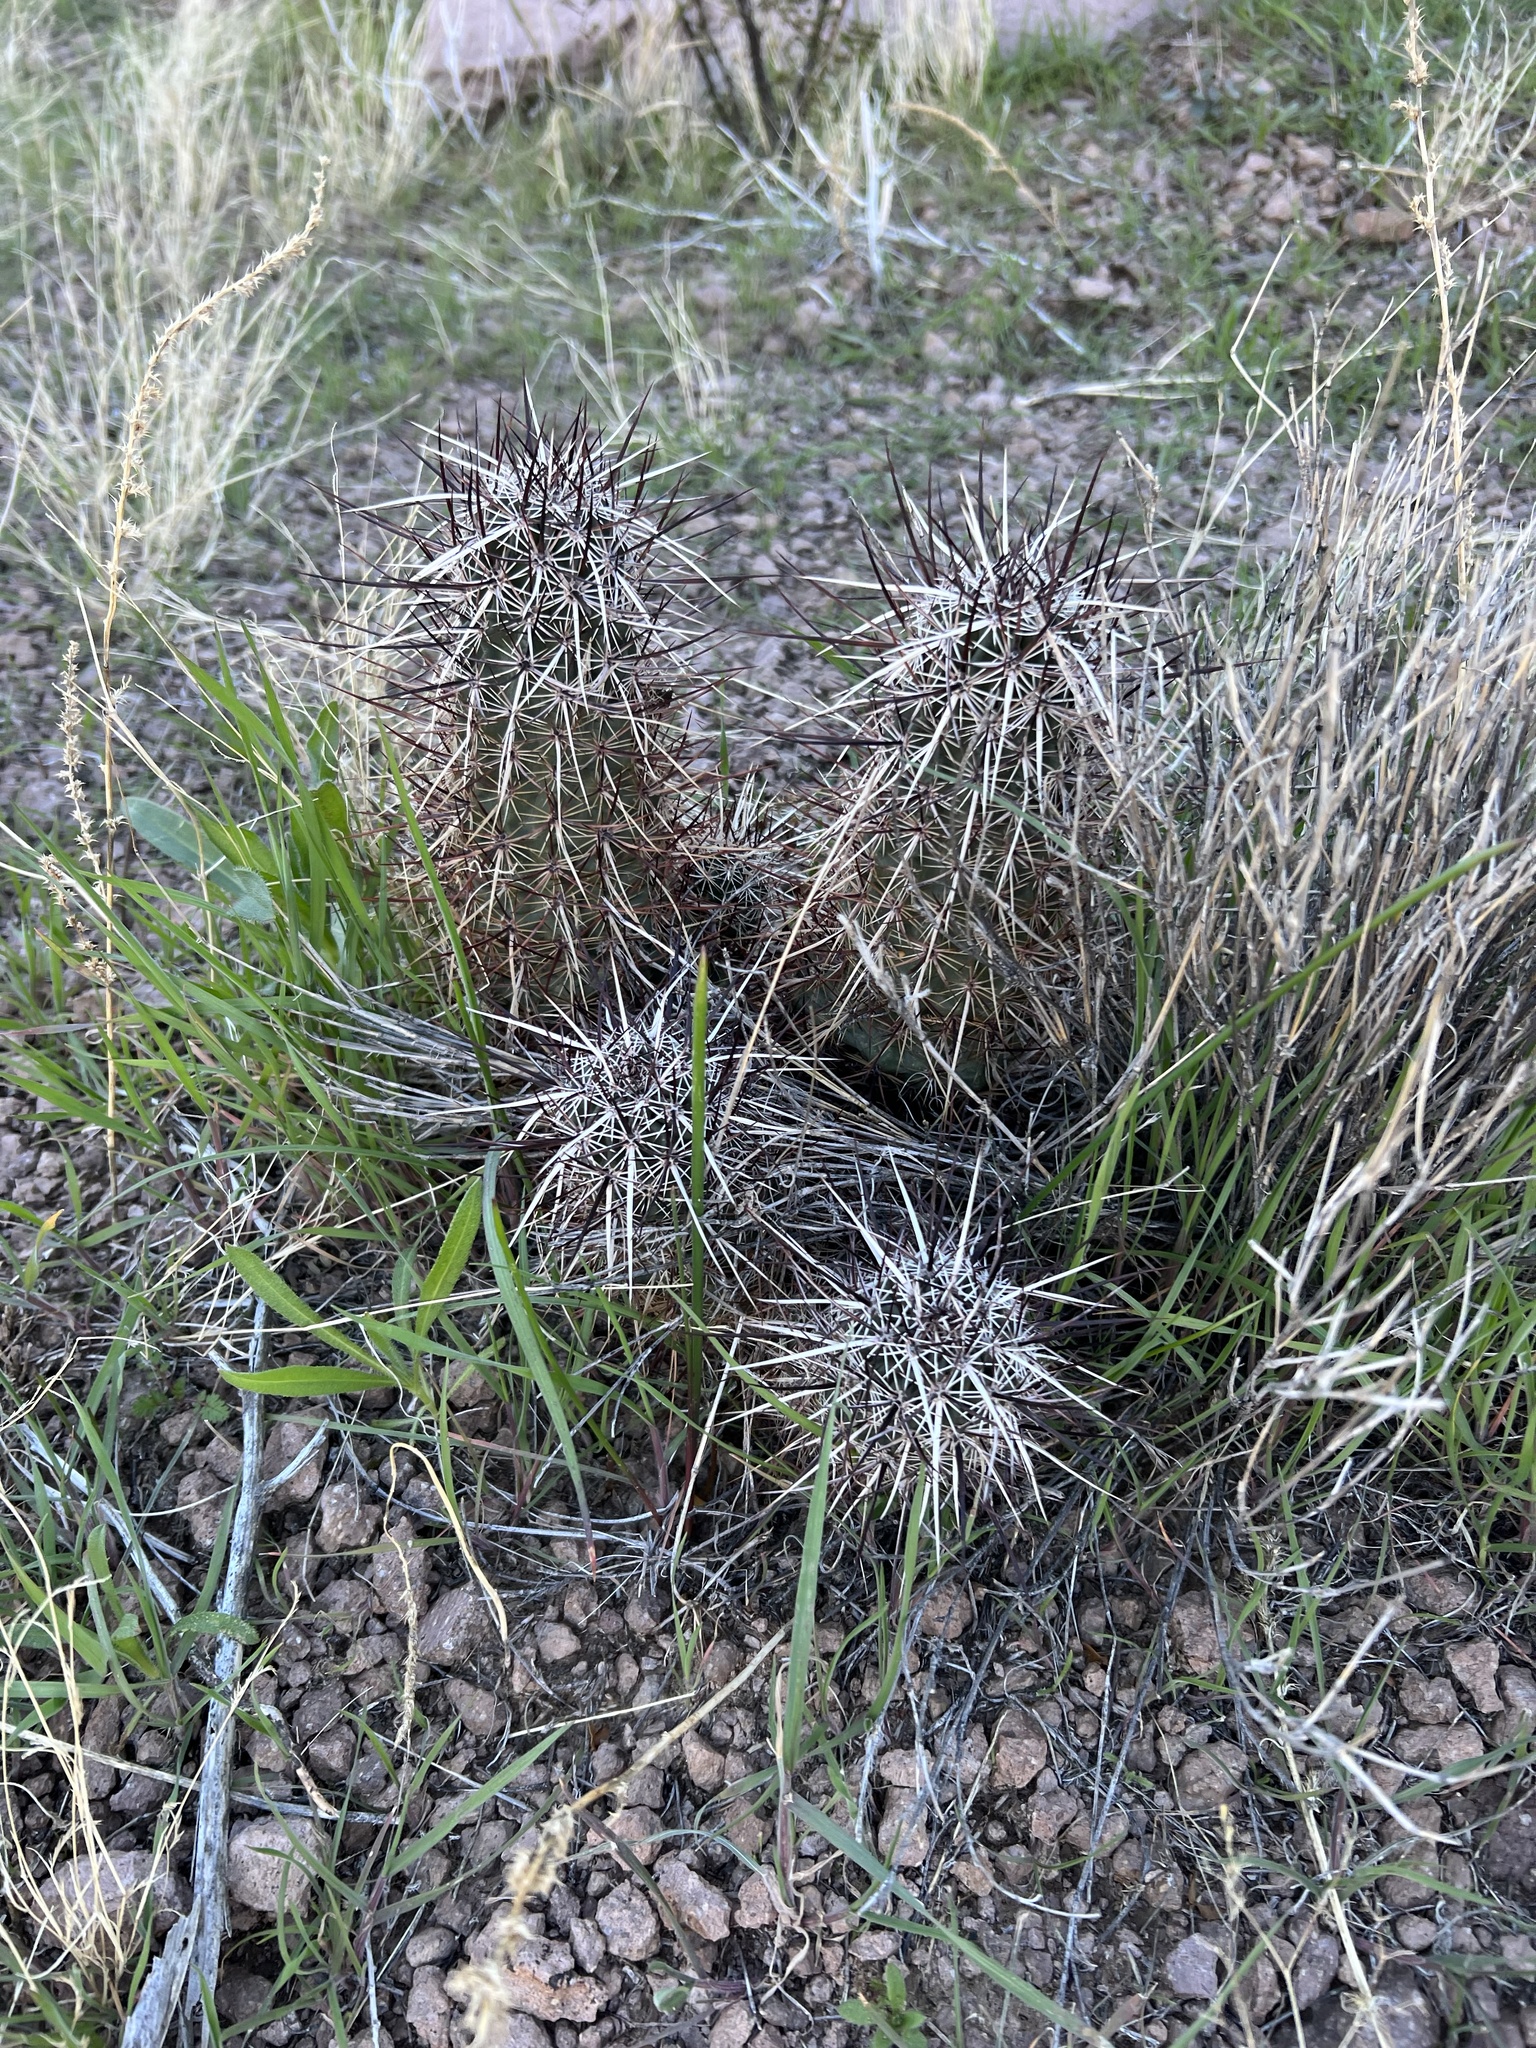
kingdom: Plantae
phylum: Tracheophyta
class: Magnoliopsida
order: Caryophyllales
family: Cactaceae
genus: Echinocereus
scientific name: Echinocereus engelmannii
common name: Engelmann's hedgehog cactus
